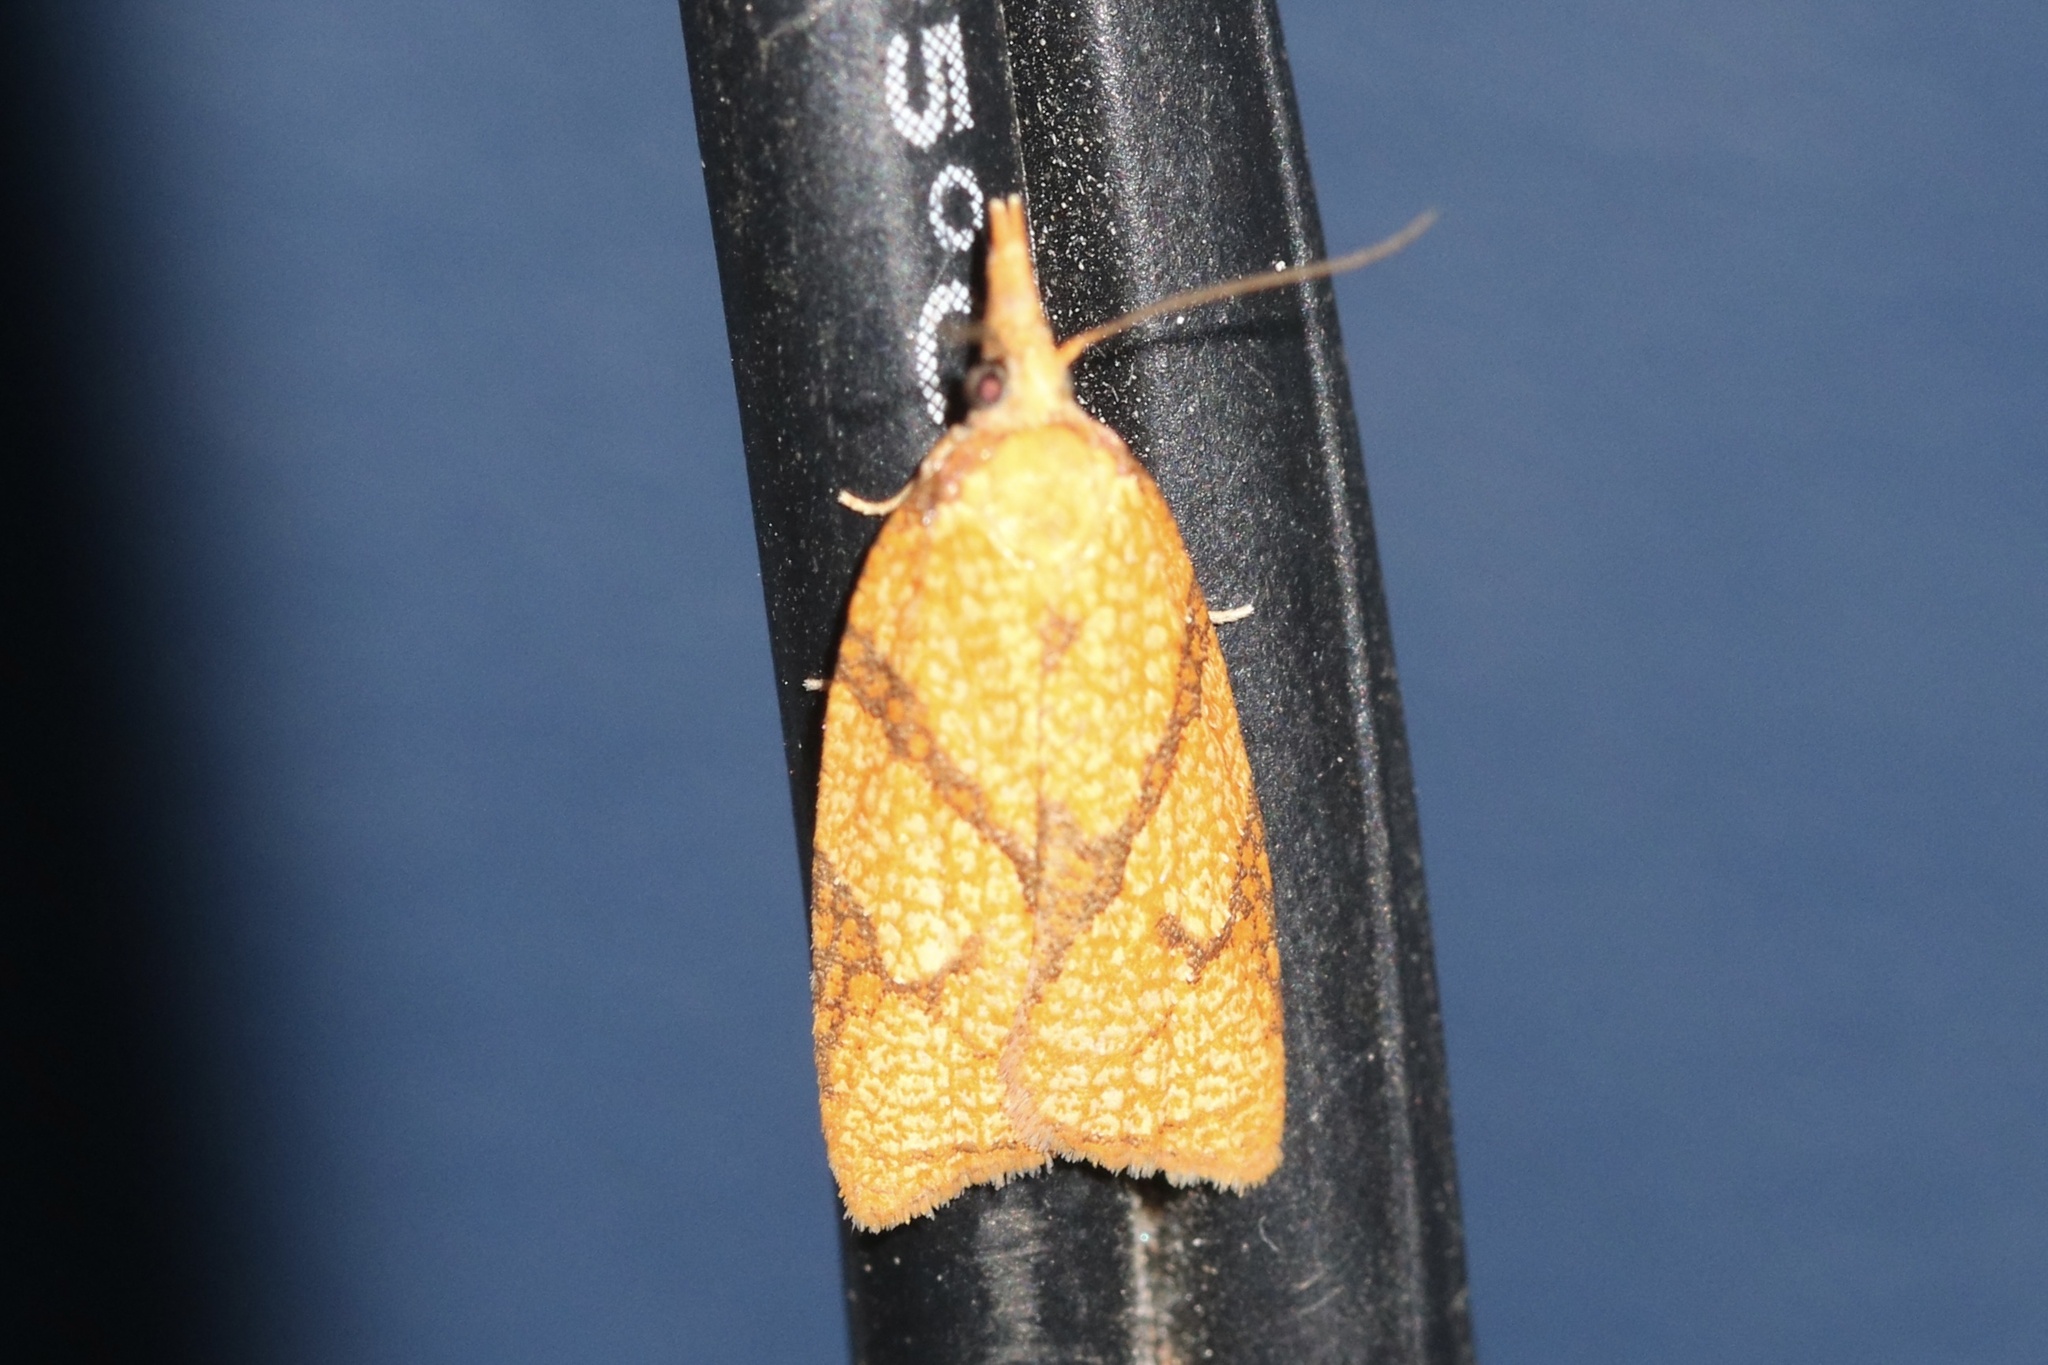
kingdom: Animalia
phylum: Arthropoda
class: Insecta
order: Lepidoptera
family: Tortricidae
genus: Cenopis
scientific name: Cenopis reticulatana
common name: Reticulated fruitworm moth
